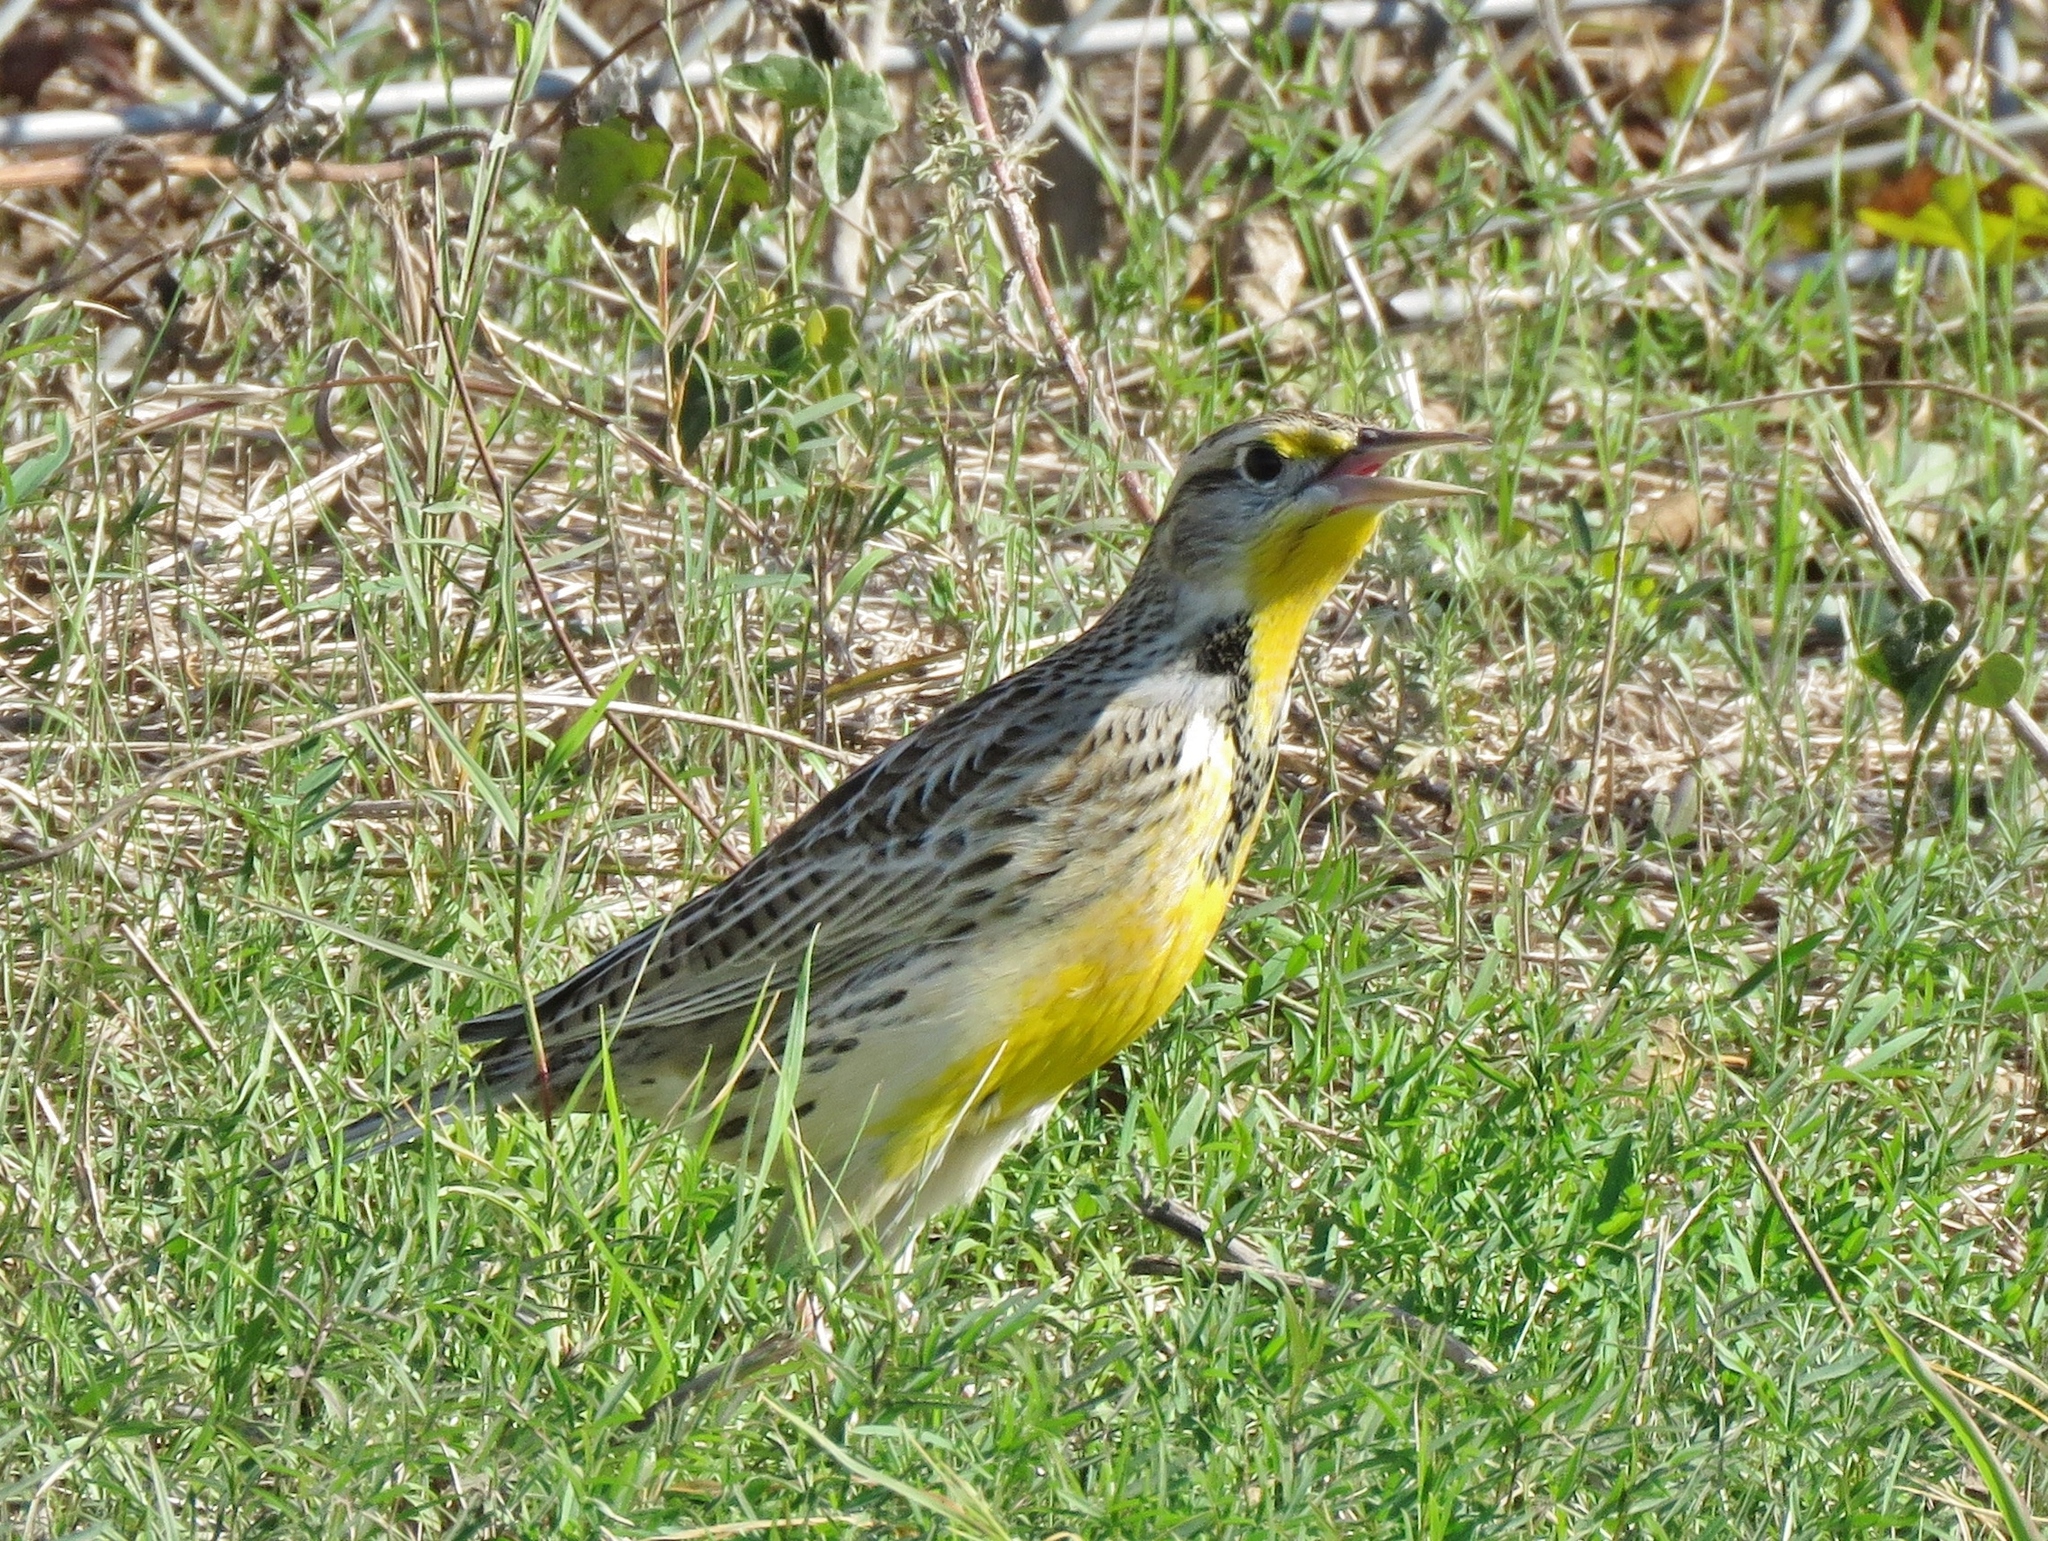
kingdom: Animalia
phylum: Chordata
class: Aves
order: Passeriformes
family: Icteridae
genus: Sturnella
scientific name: Sturnella neglecta
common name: Western meadowlark
